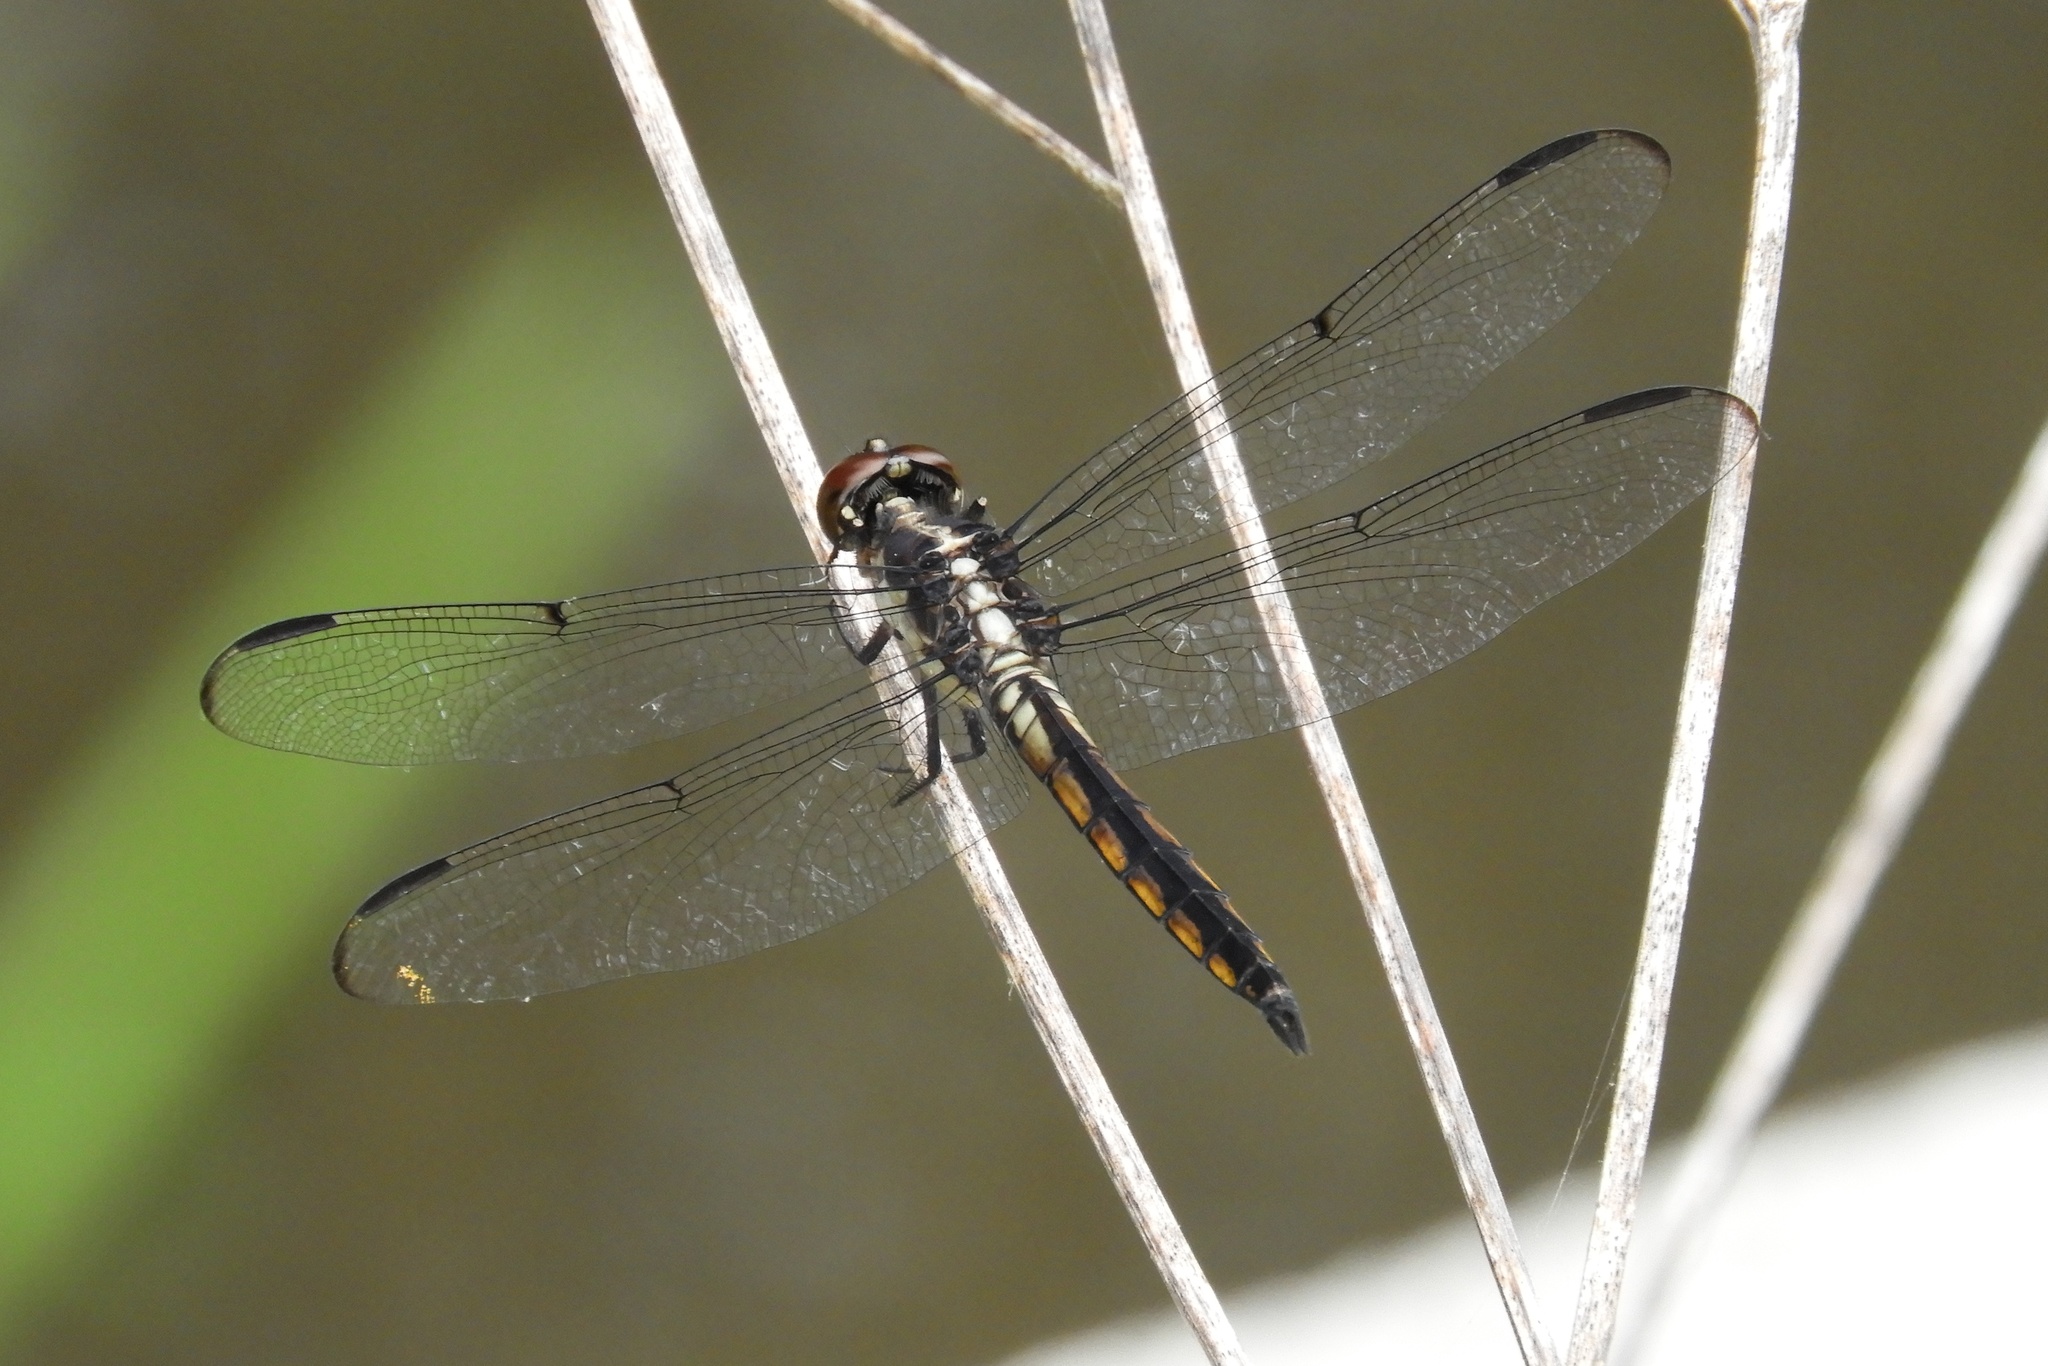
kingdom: Animalia
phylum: Arthropoda
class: Insecta
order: Odonata
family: Libellulidae
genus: Libellula
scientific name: Libellula incesta
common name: Slaty skimmer
